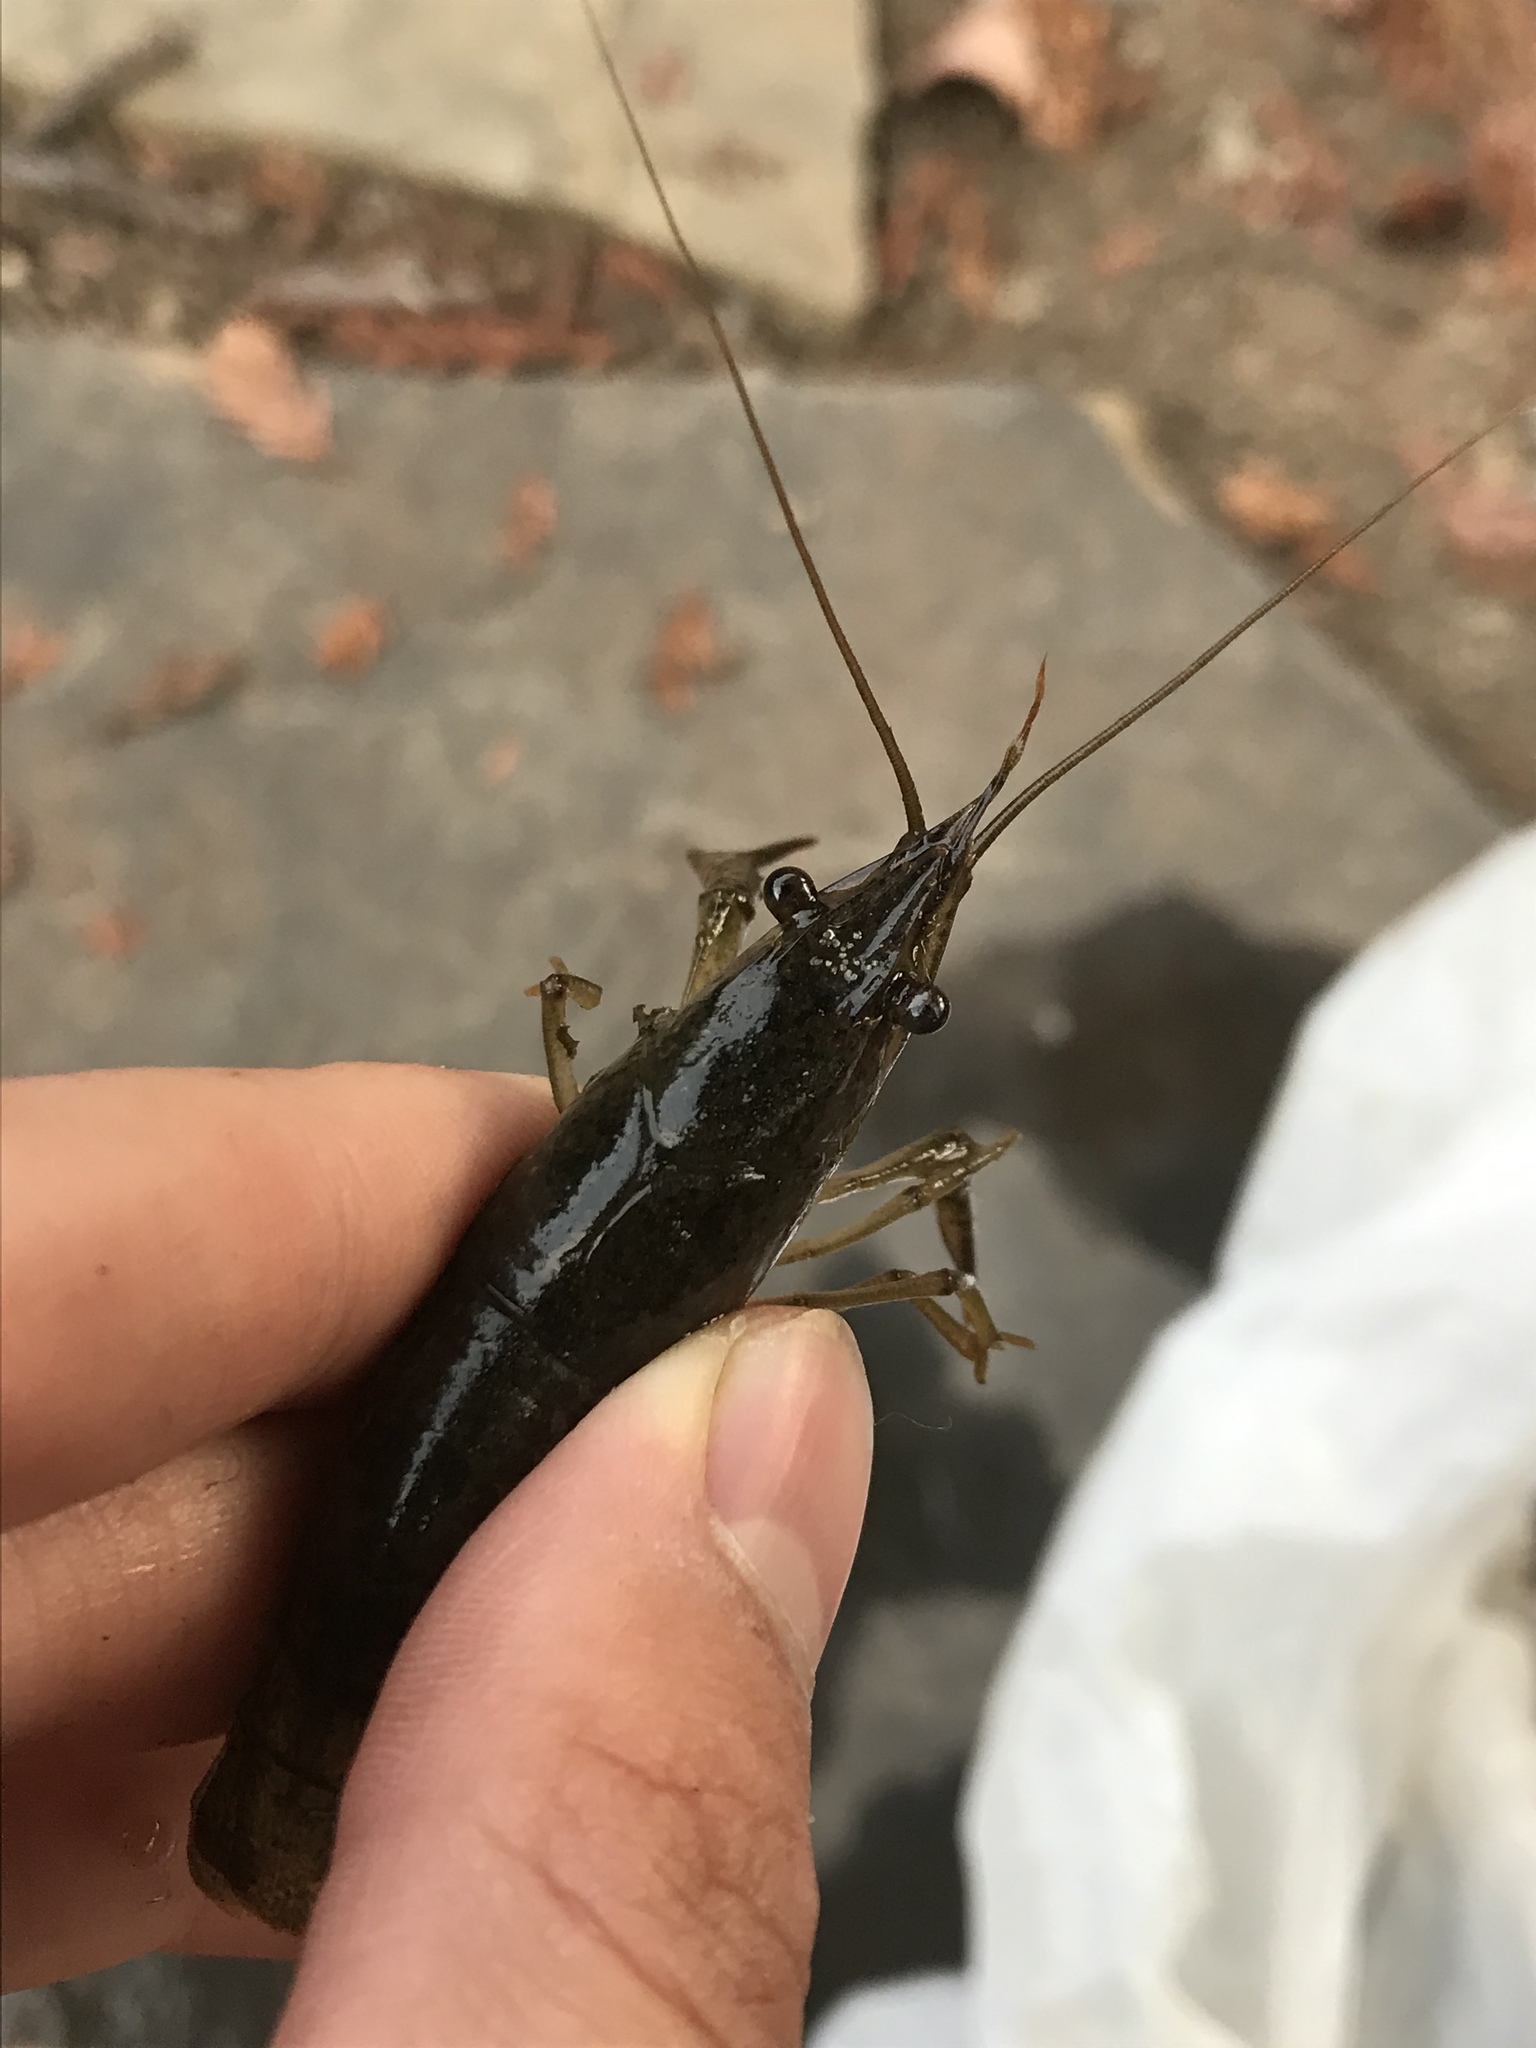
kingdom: Animalia
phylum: Arthropoda
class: Malacostraca
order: Decapoda
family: Cambaridae
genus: Procambarus
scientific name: Procambarus clarkii
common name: Red swamp crayfish
